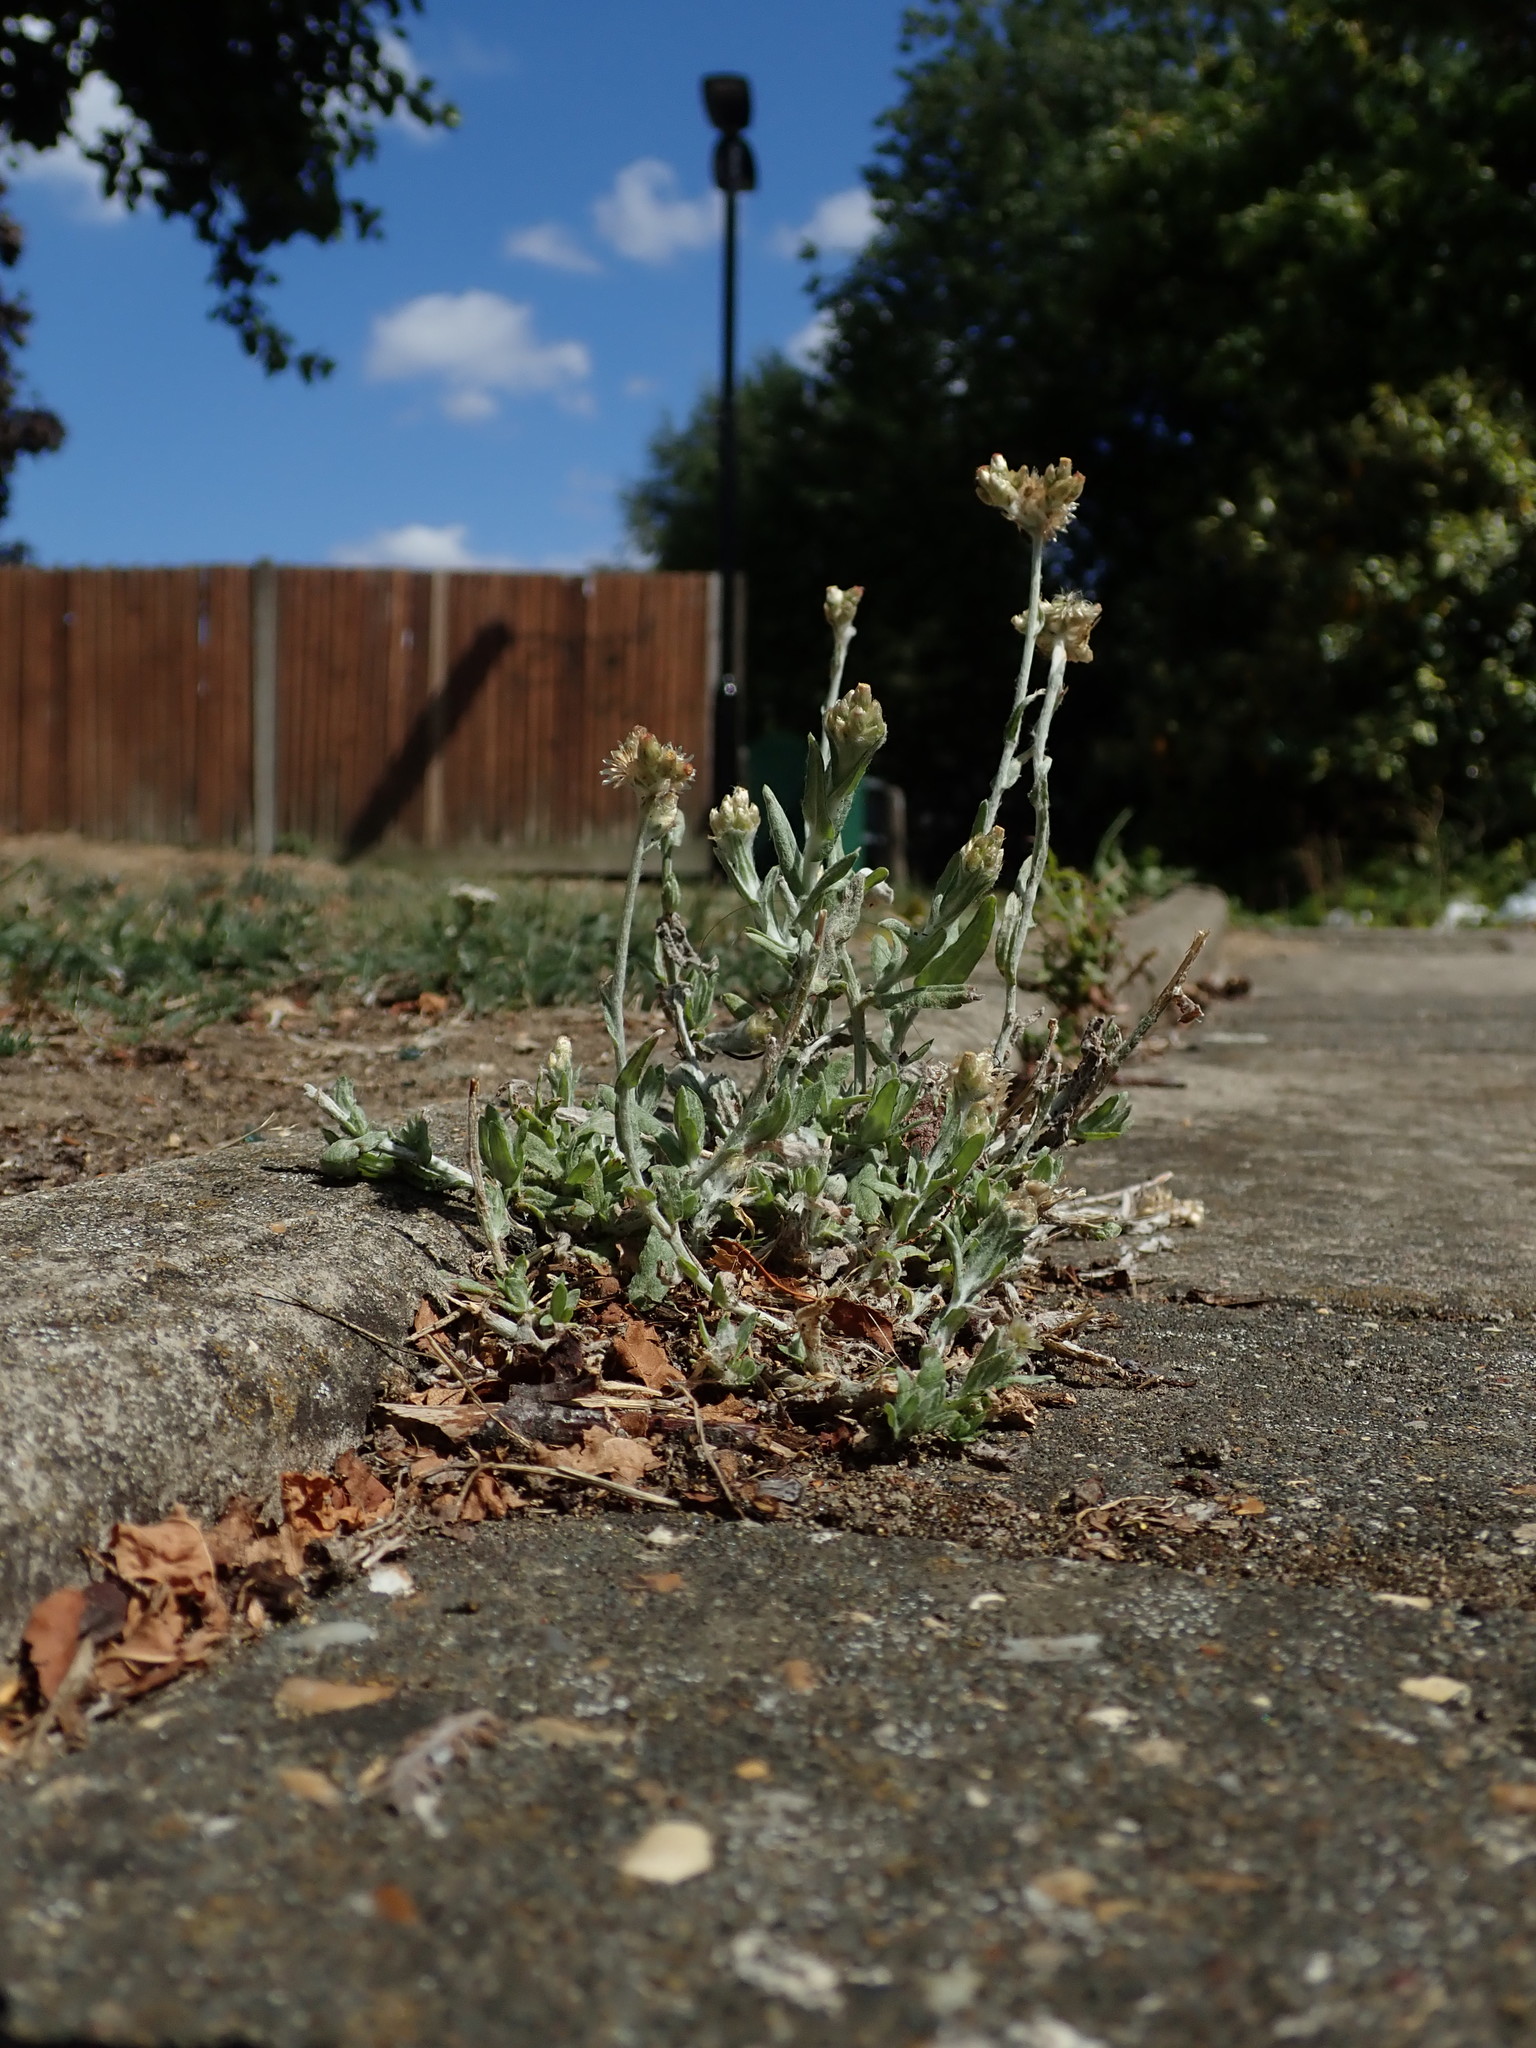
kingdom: Plantae
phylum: Tracheophyta
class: Magnoliopsida
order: Asterales
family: Asteraceae
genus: Helichrysum
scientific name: Helichrysum luteoalbum
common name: Daisy
